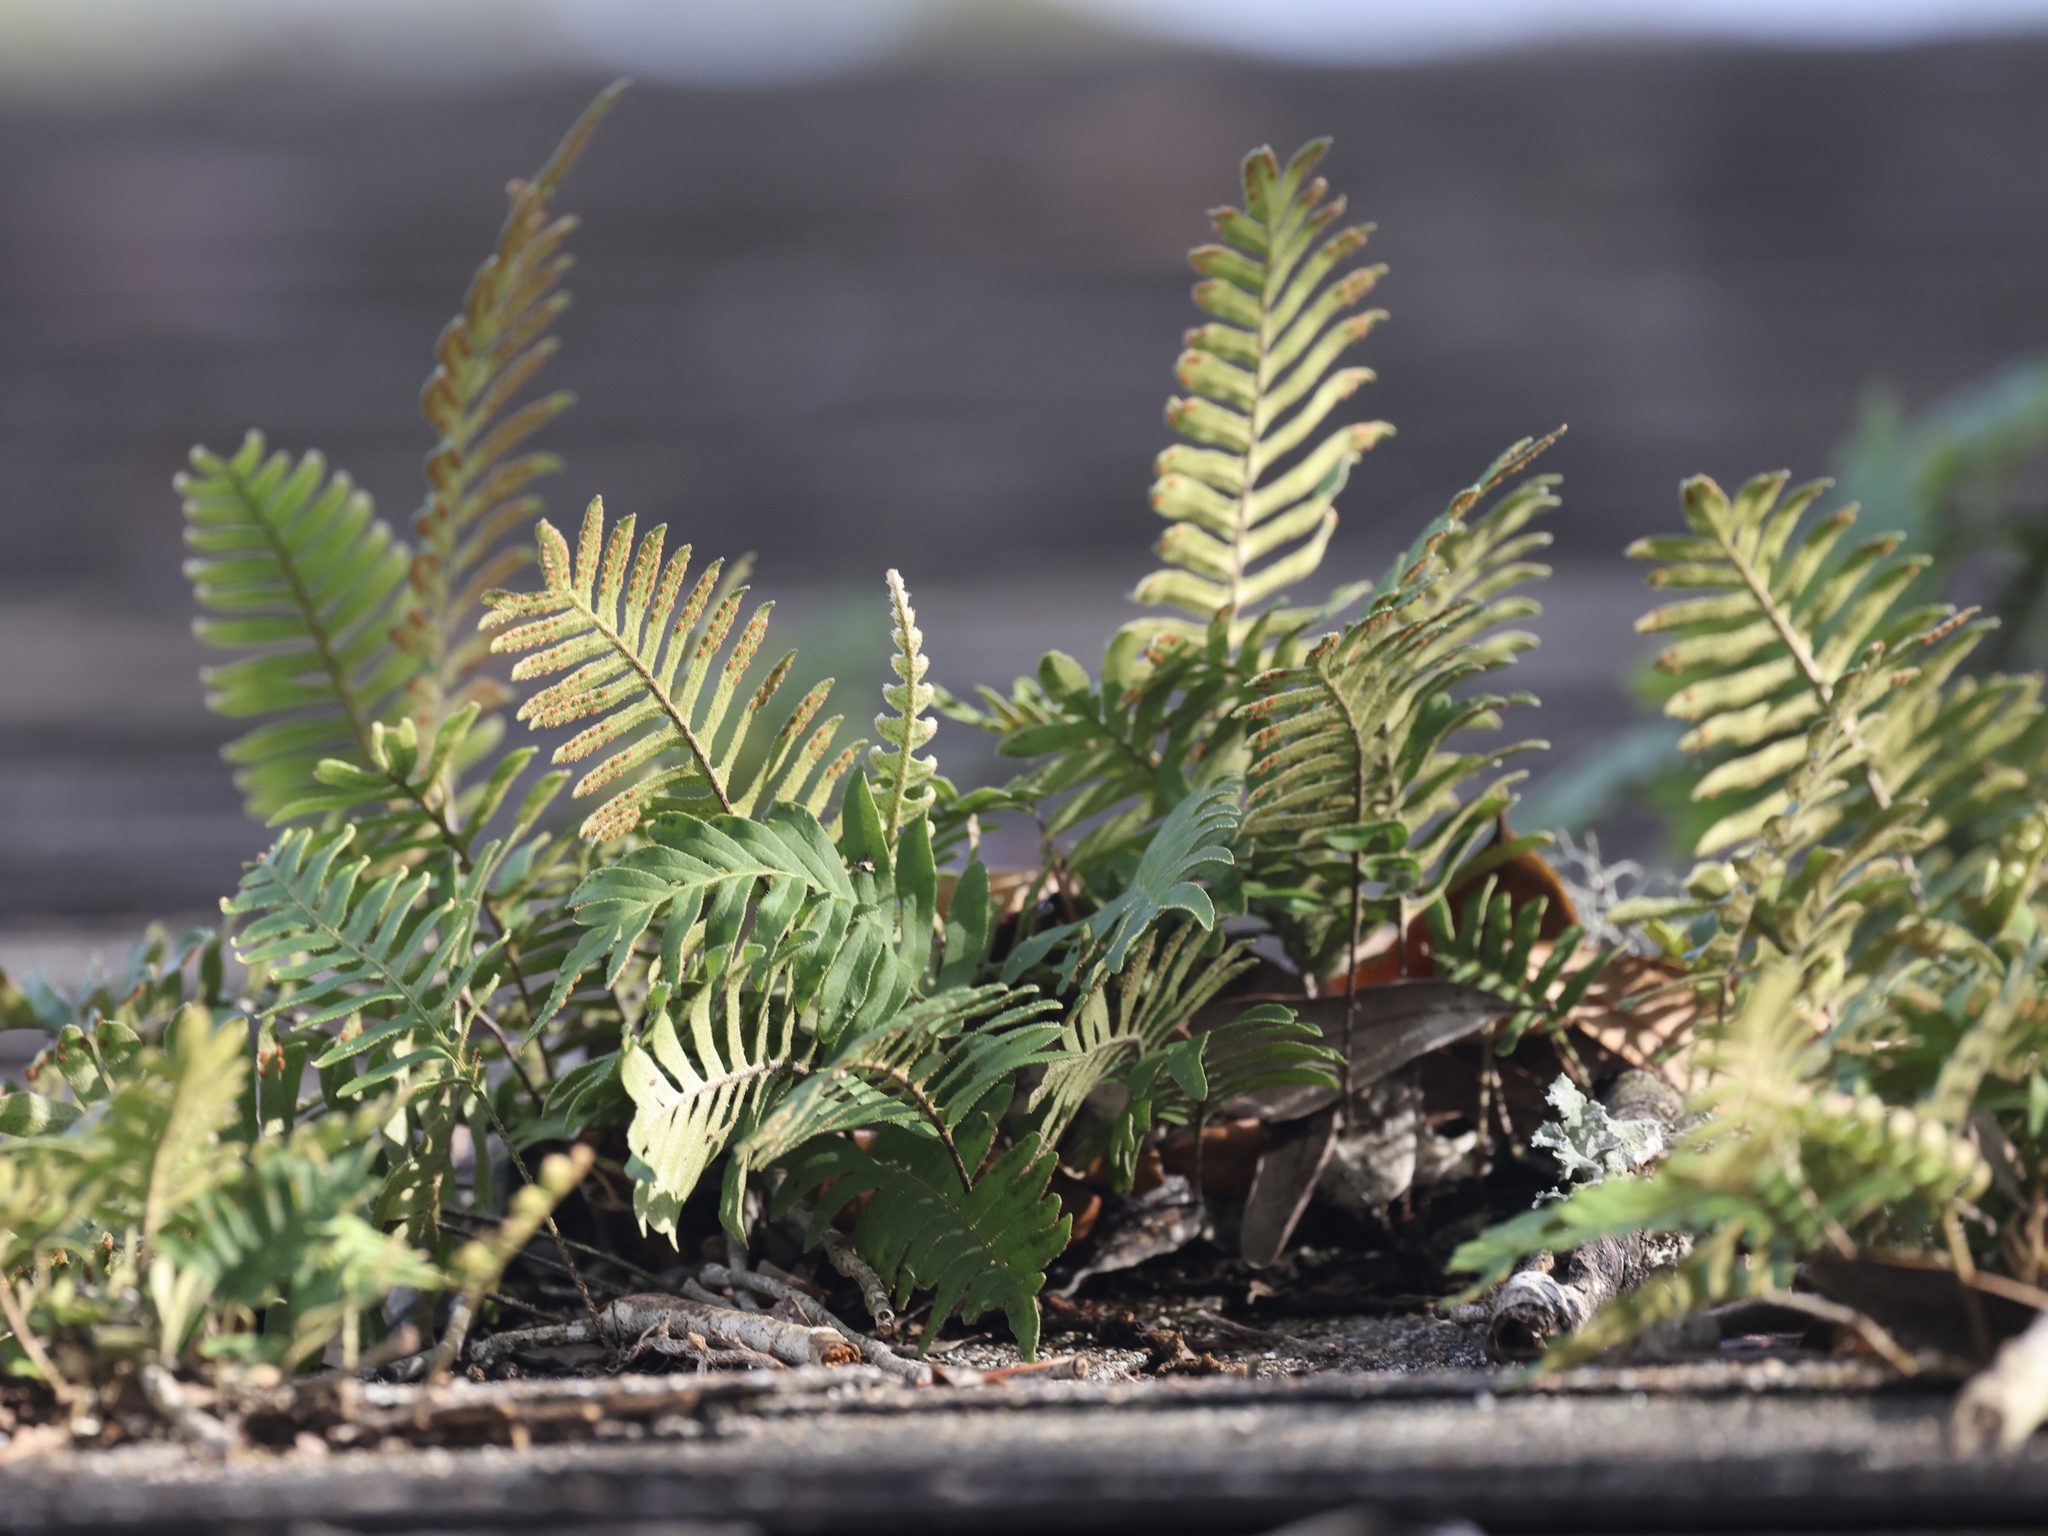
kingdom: Plantae
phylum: Tracheophyta
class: Polypodiopsida
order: Polypodiales
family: Polypodiaceae
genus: Pleopeltis
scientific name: Pleopeltis michauxiana
